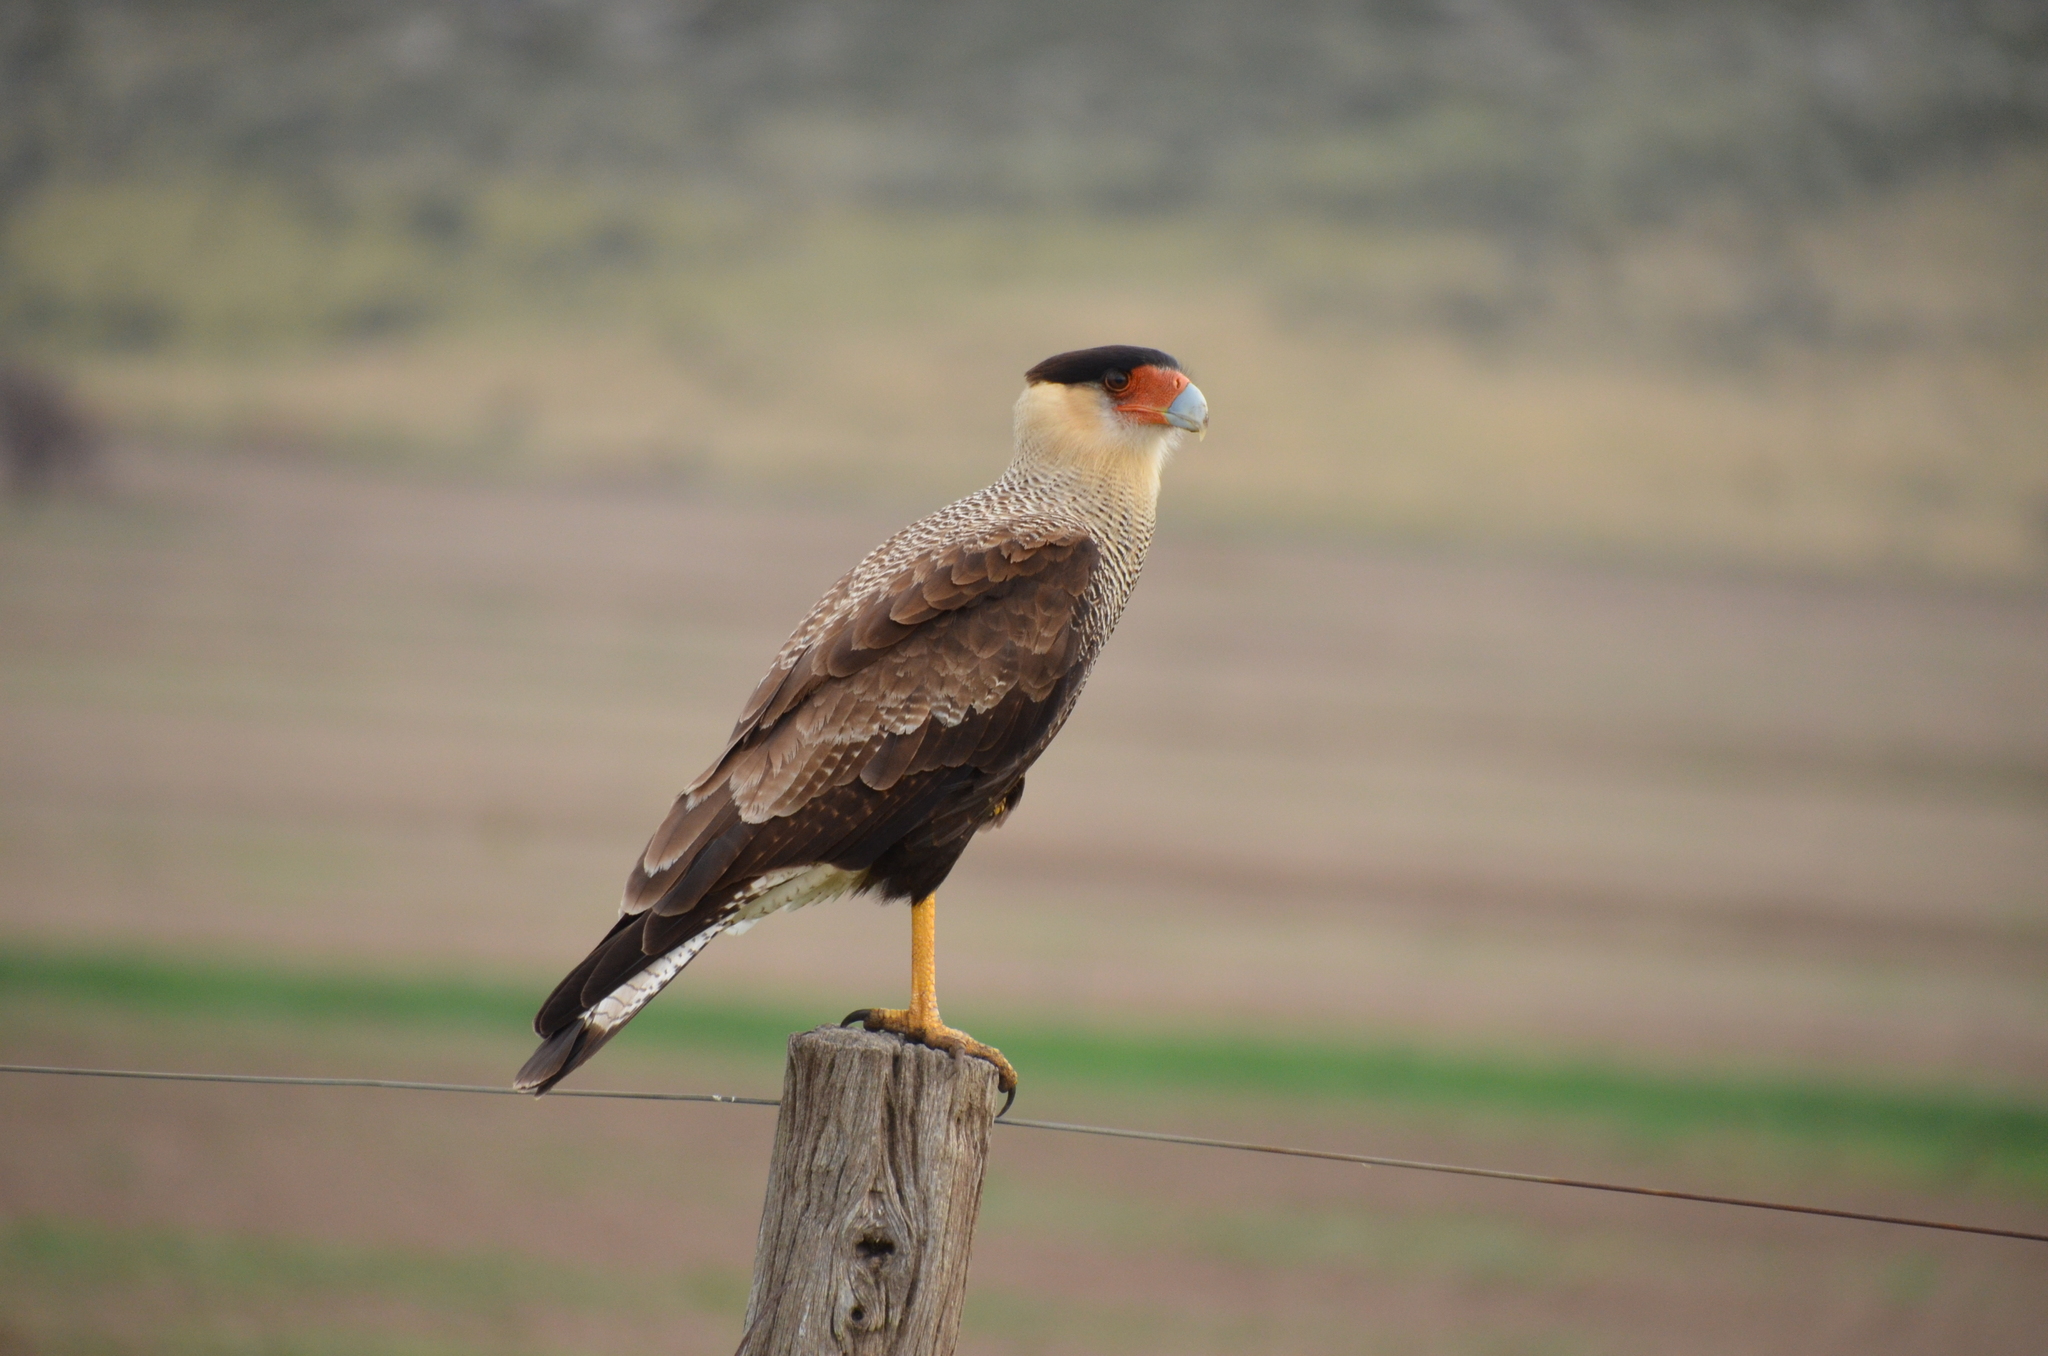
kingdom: Animalia
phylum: Chordata
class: Aves
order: Falconiformes
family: Falconidae
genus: Caracara
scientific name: Caracara plancus
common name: Southern caracara
